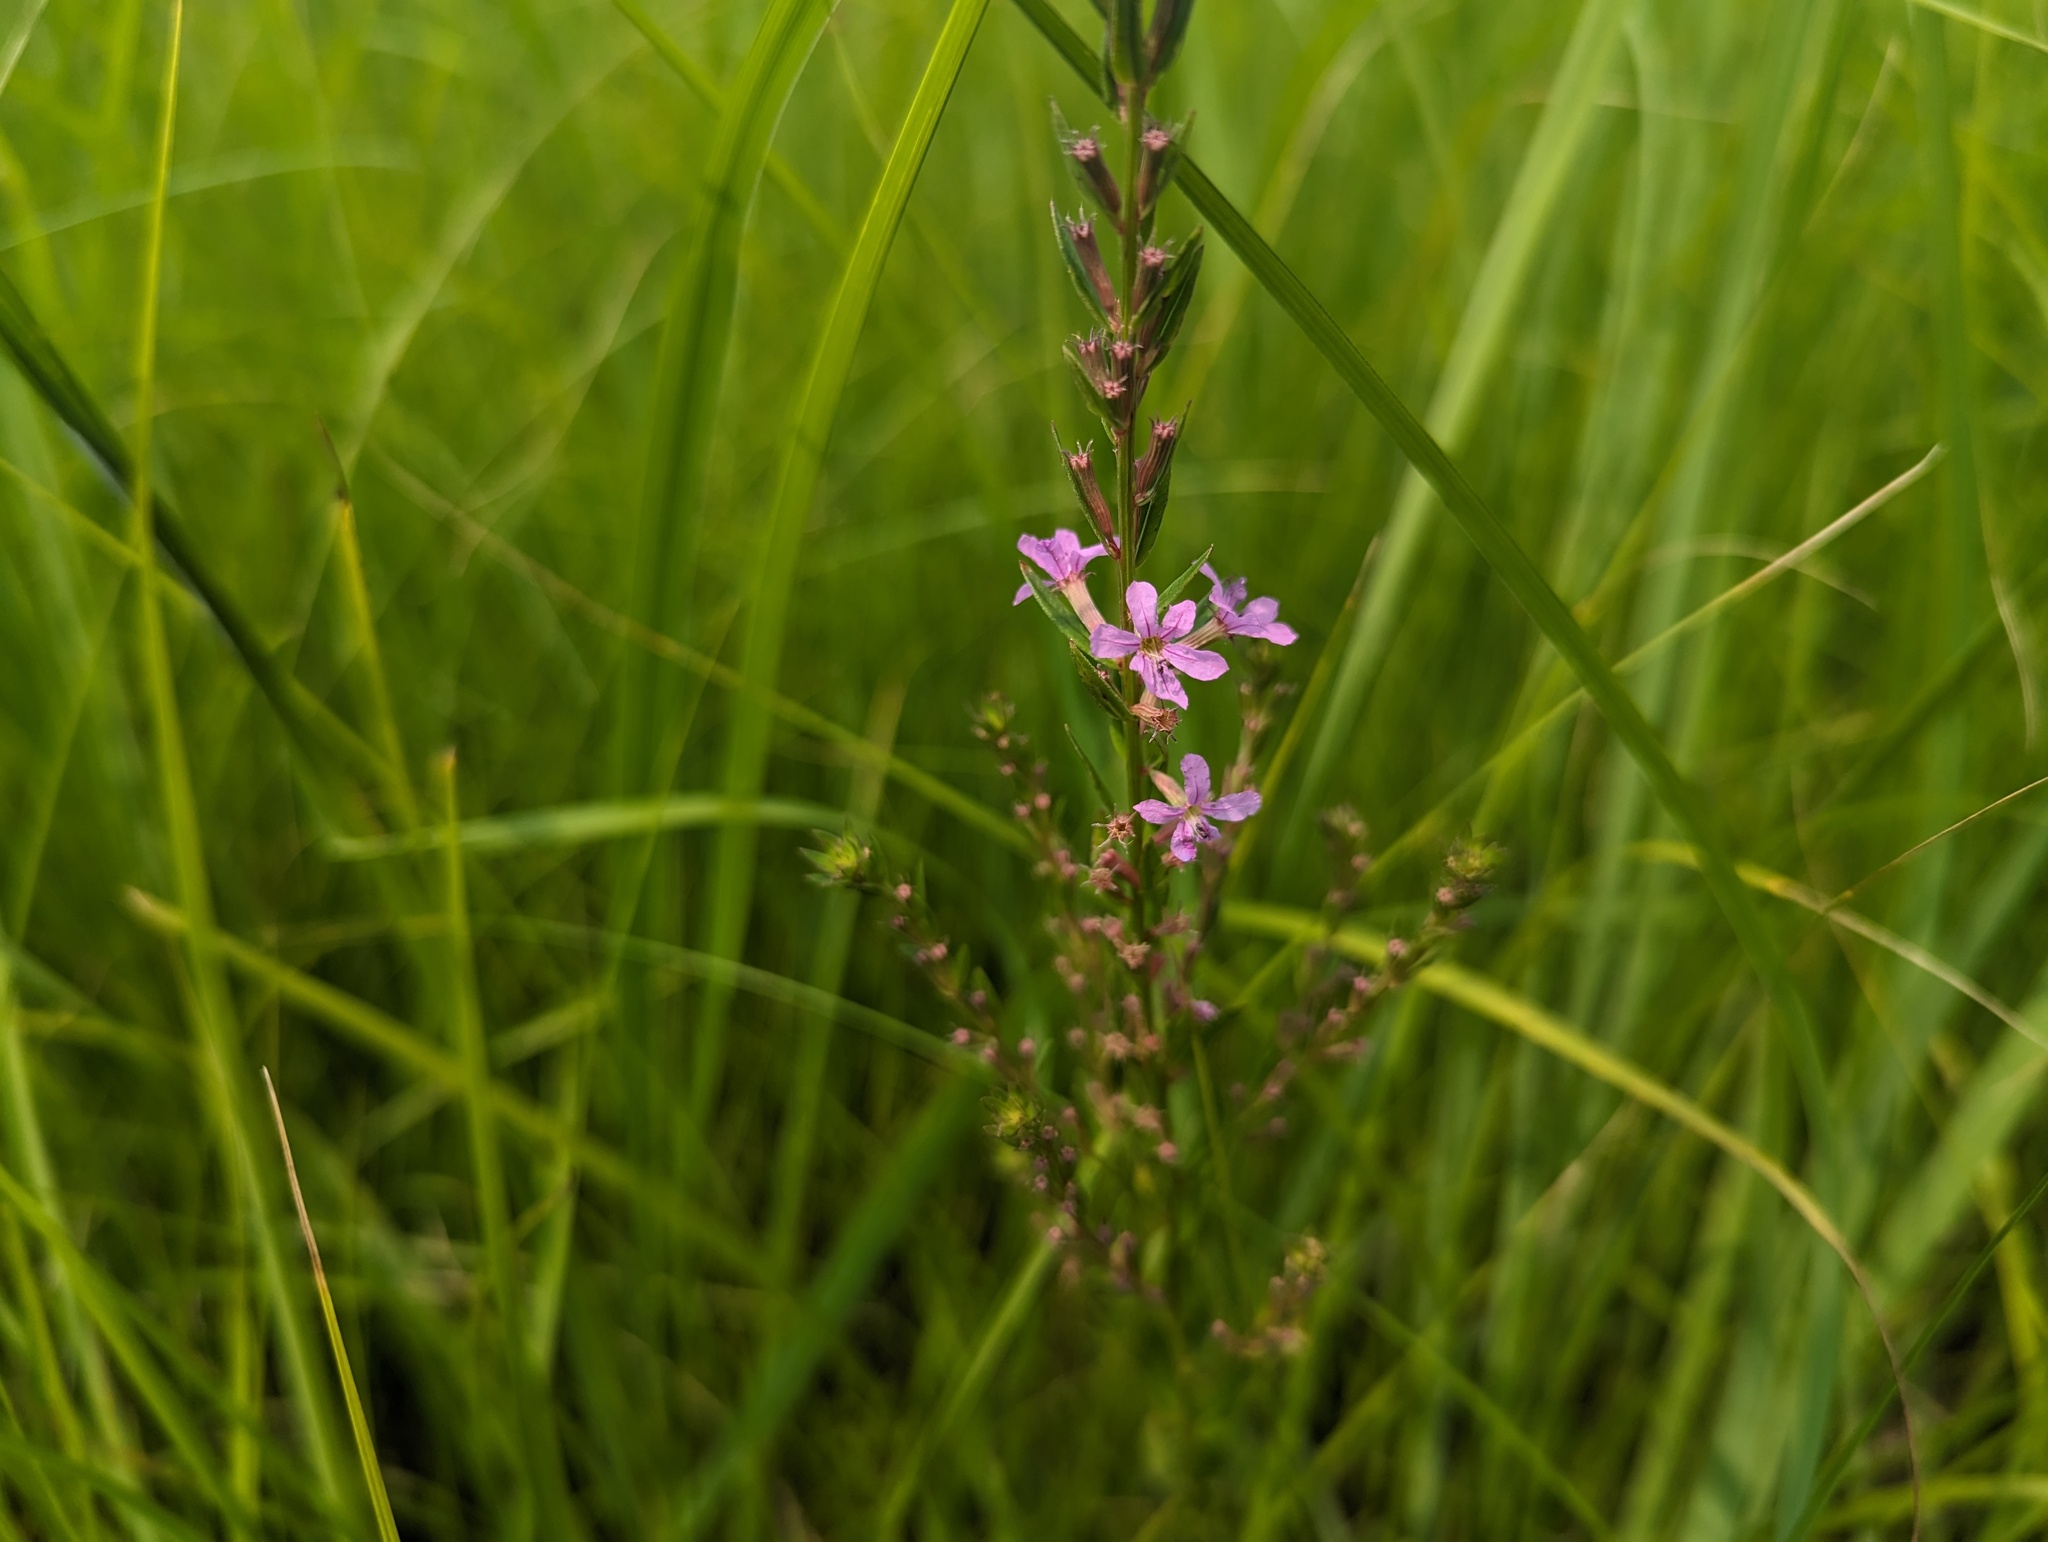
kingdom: Plantae
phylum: Tracheophyta
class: Magnoliopsida
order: Myrtales
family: Lythraceae
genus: Lythrum
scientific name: Lythrum alatum
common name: Winged loosestrife
